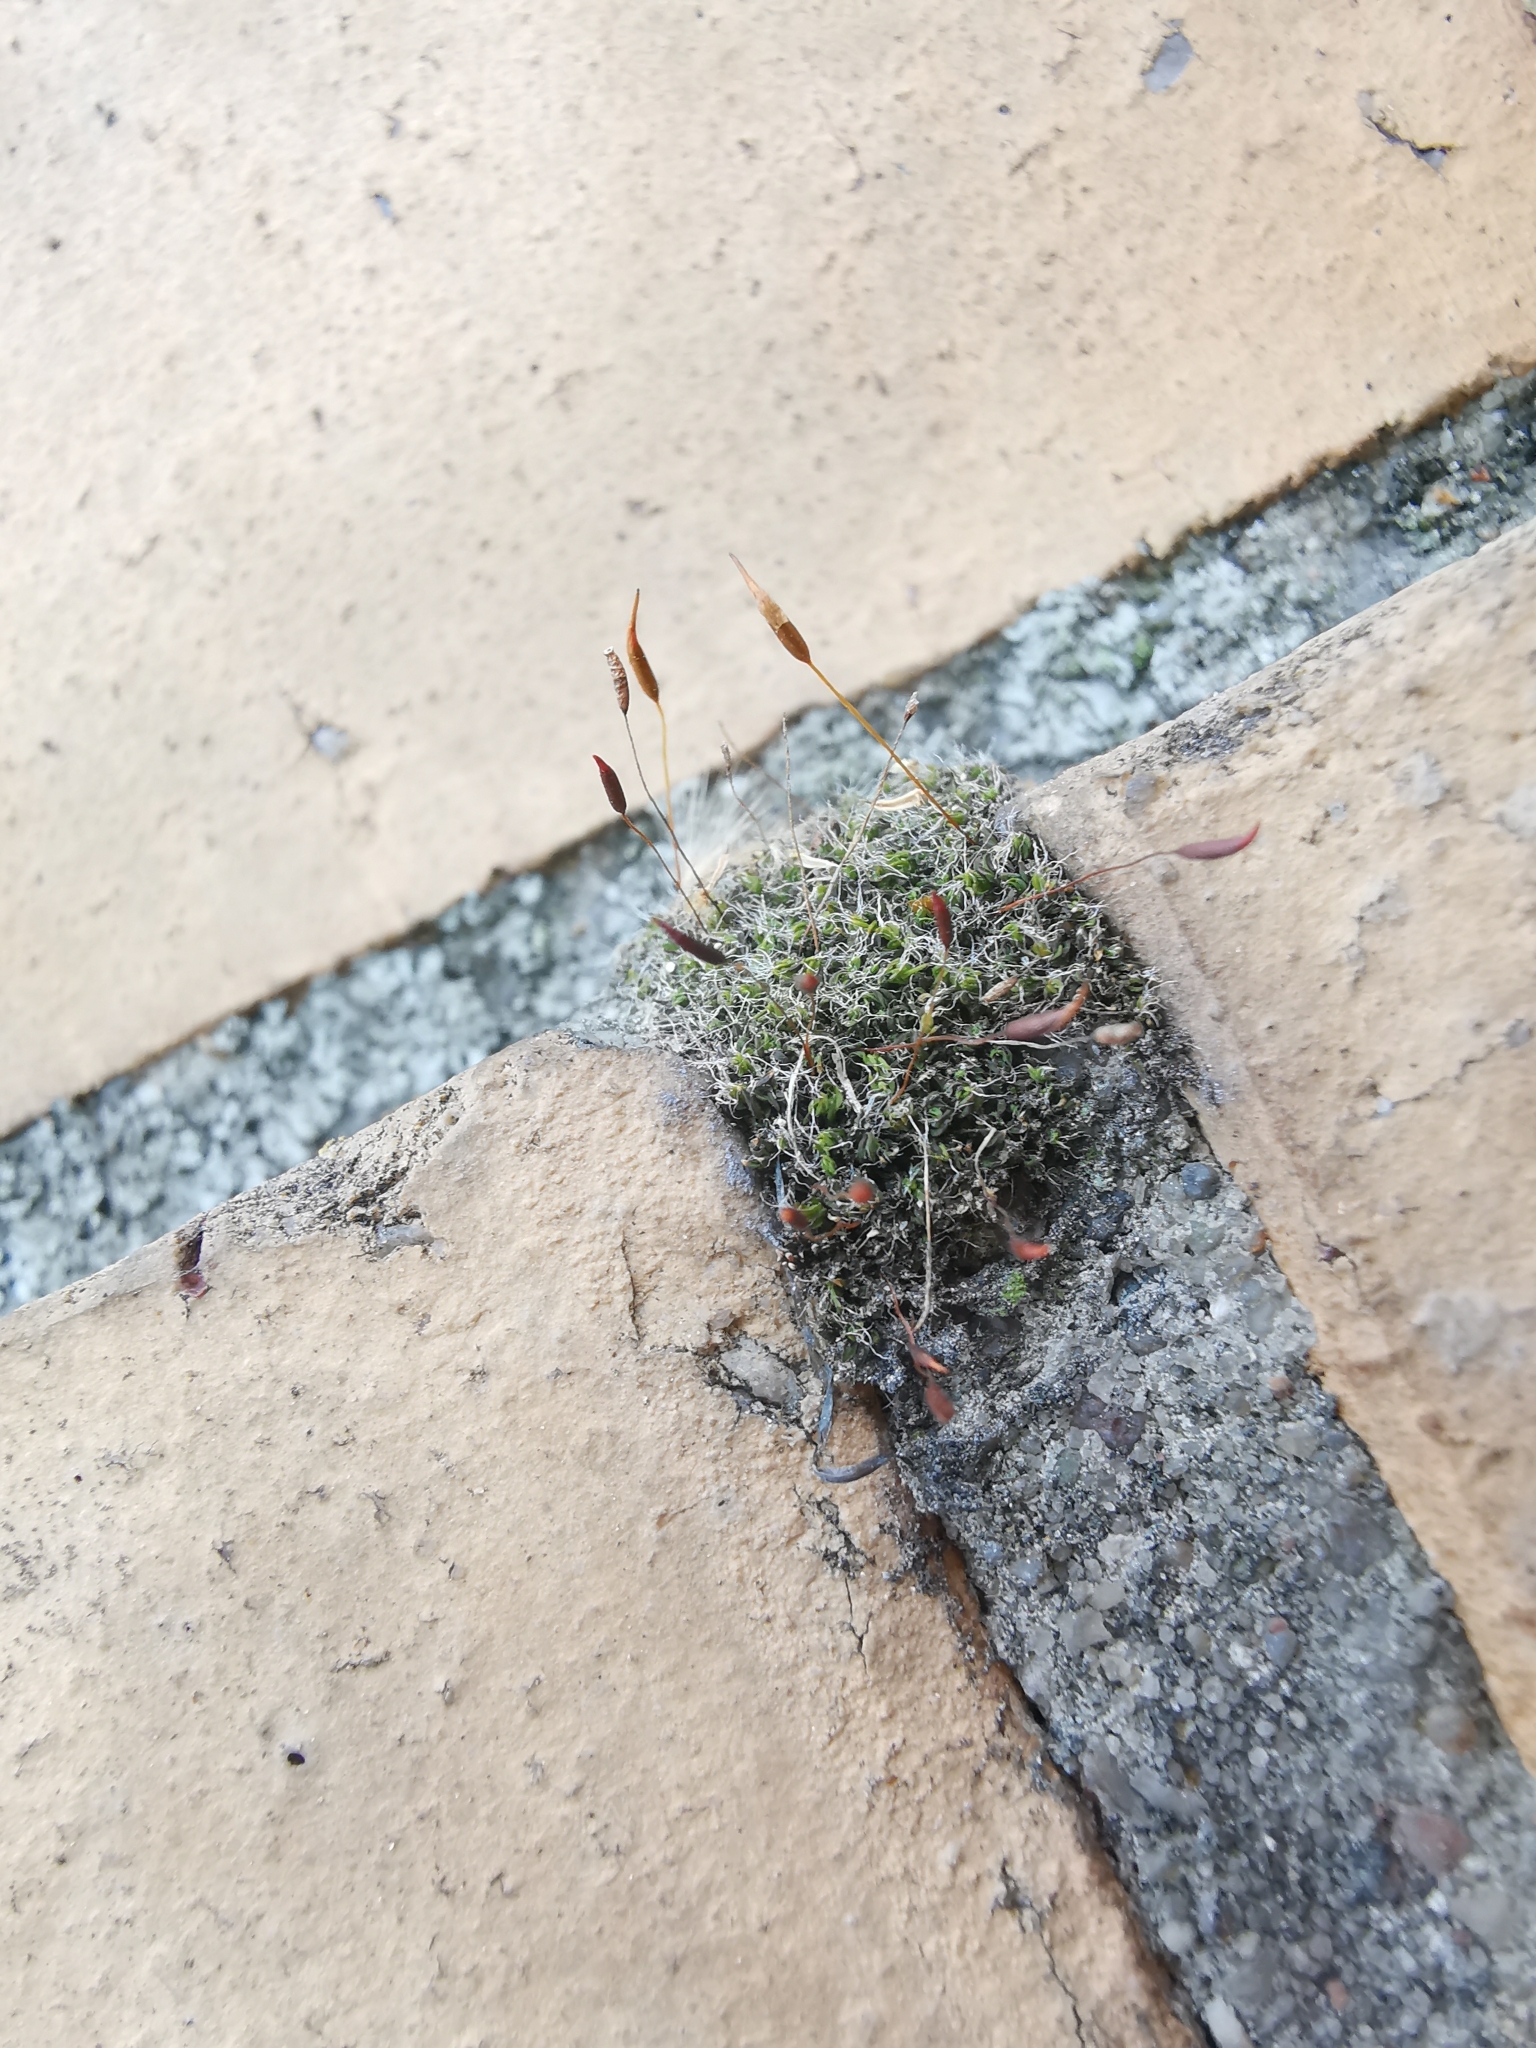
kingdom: Plantae
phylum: Bryophyta
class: Bryopsida
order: Pottiales
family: Pottiaceae
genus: Tortula
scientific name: Tortula muralis
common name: Wall screw-moss
